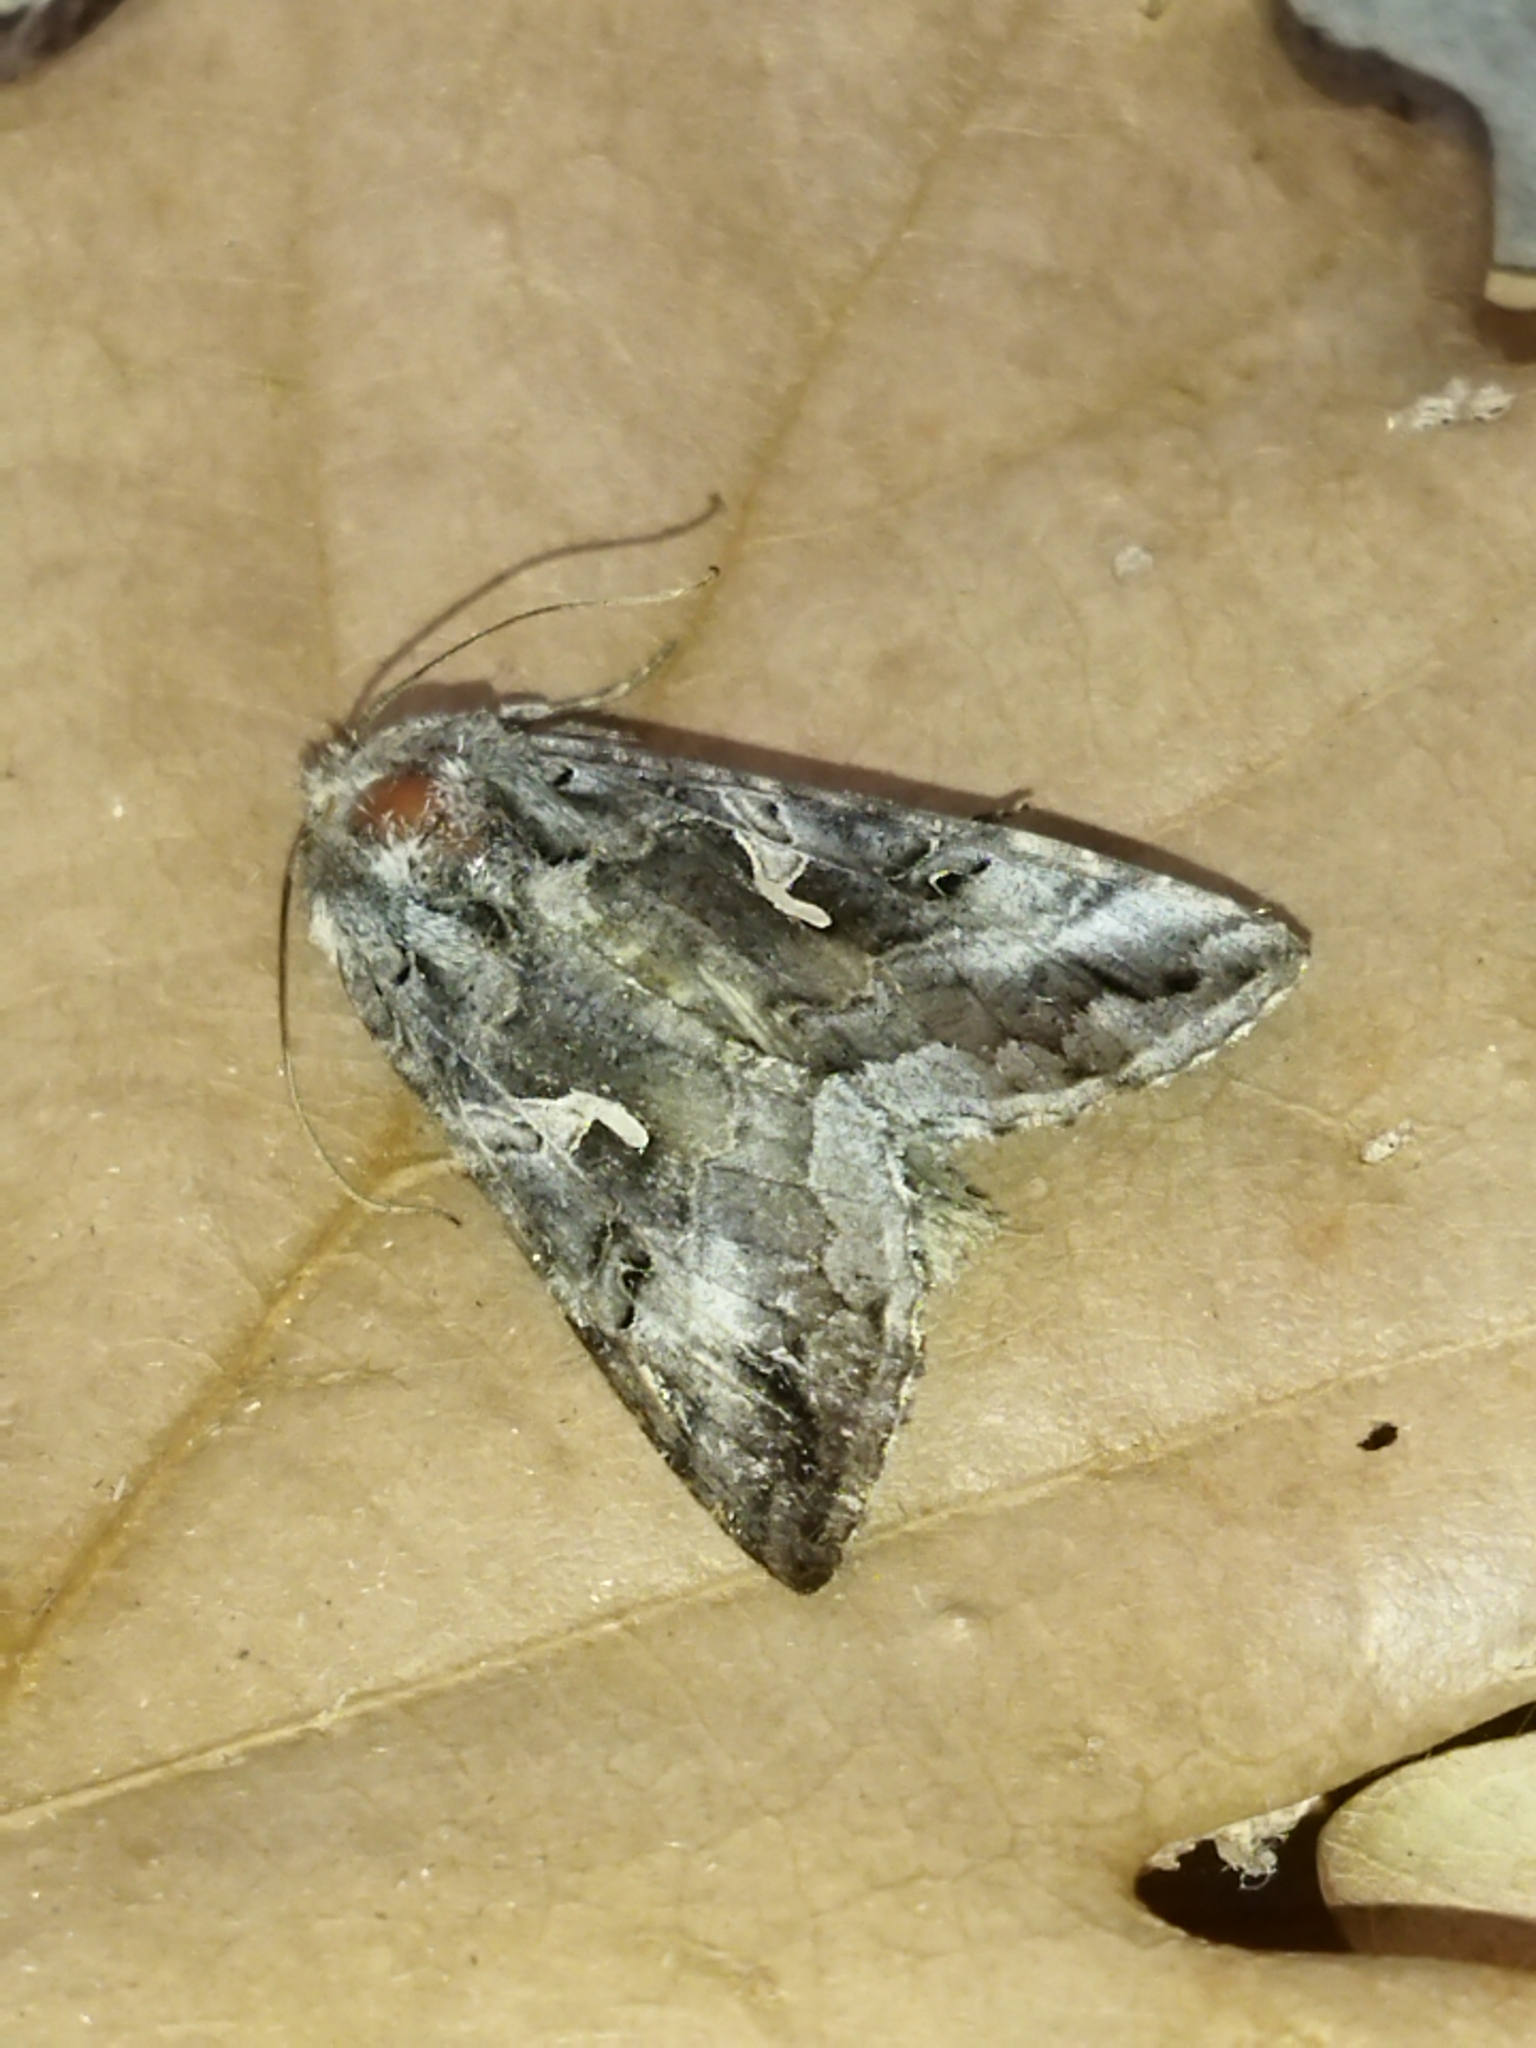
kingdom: Animalia
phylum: Arthropoda
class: Insecta
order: Lepidoptera
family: Noctuidae
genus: Autographa
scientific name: Autographa gamma
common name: Silver y
